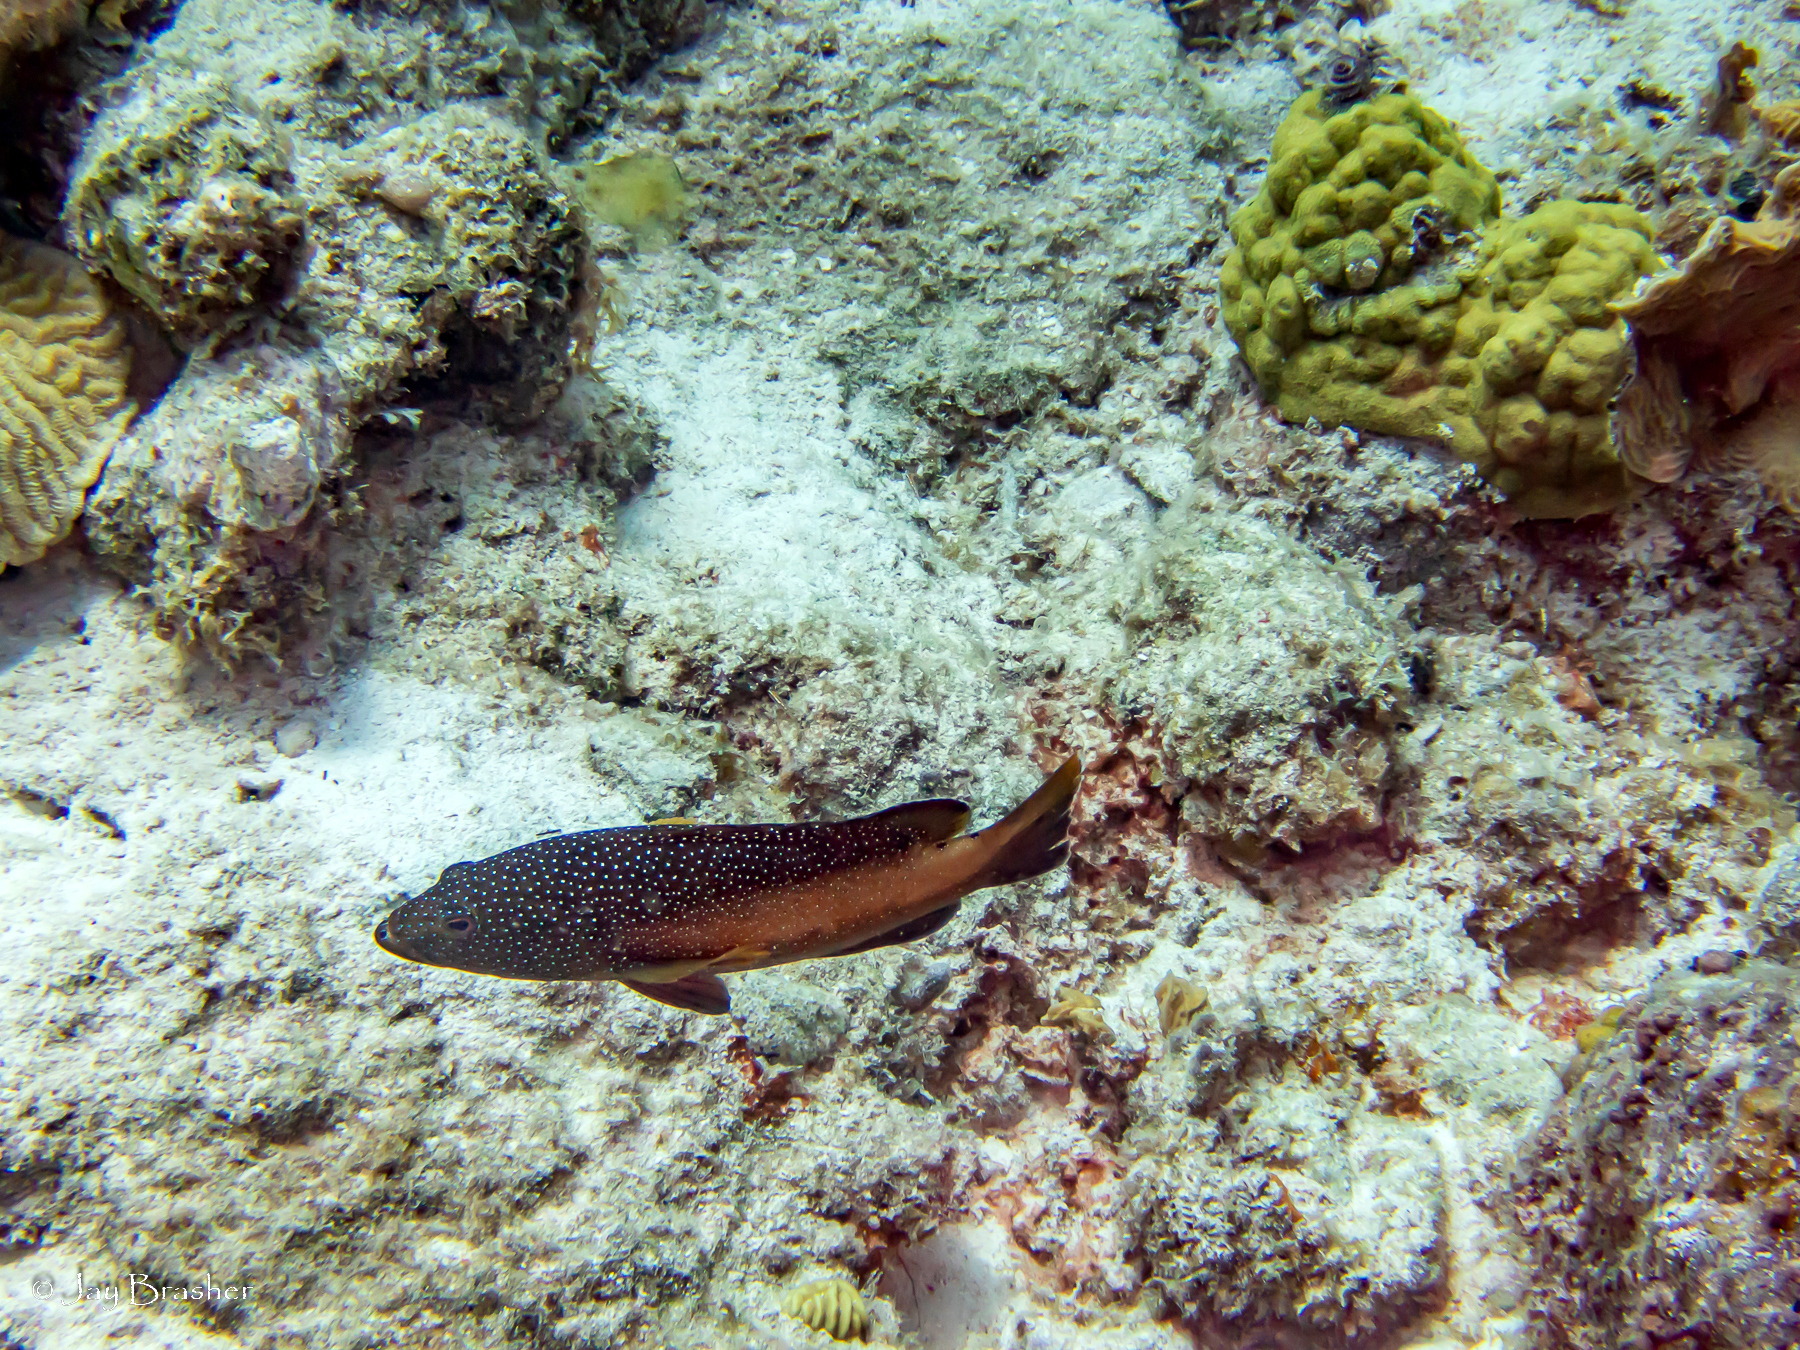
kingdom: Animalia
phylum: Chordata
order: Perciformes
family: Serranidae
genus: Cephalopholis
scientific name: Cephalopholis fulva
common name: Butterfish
